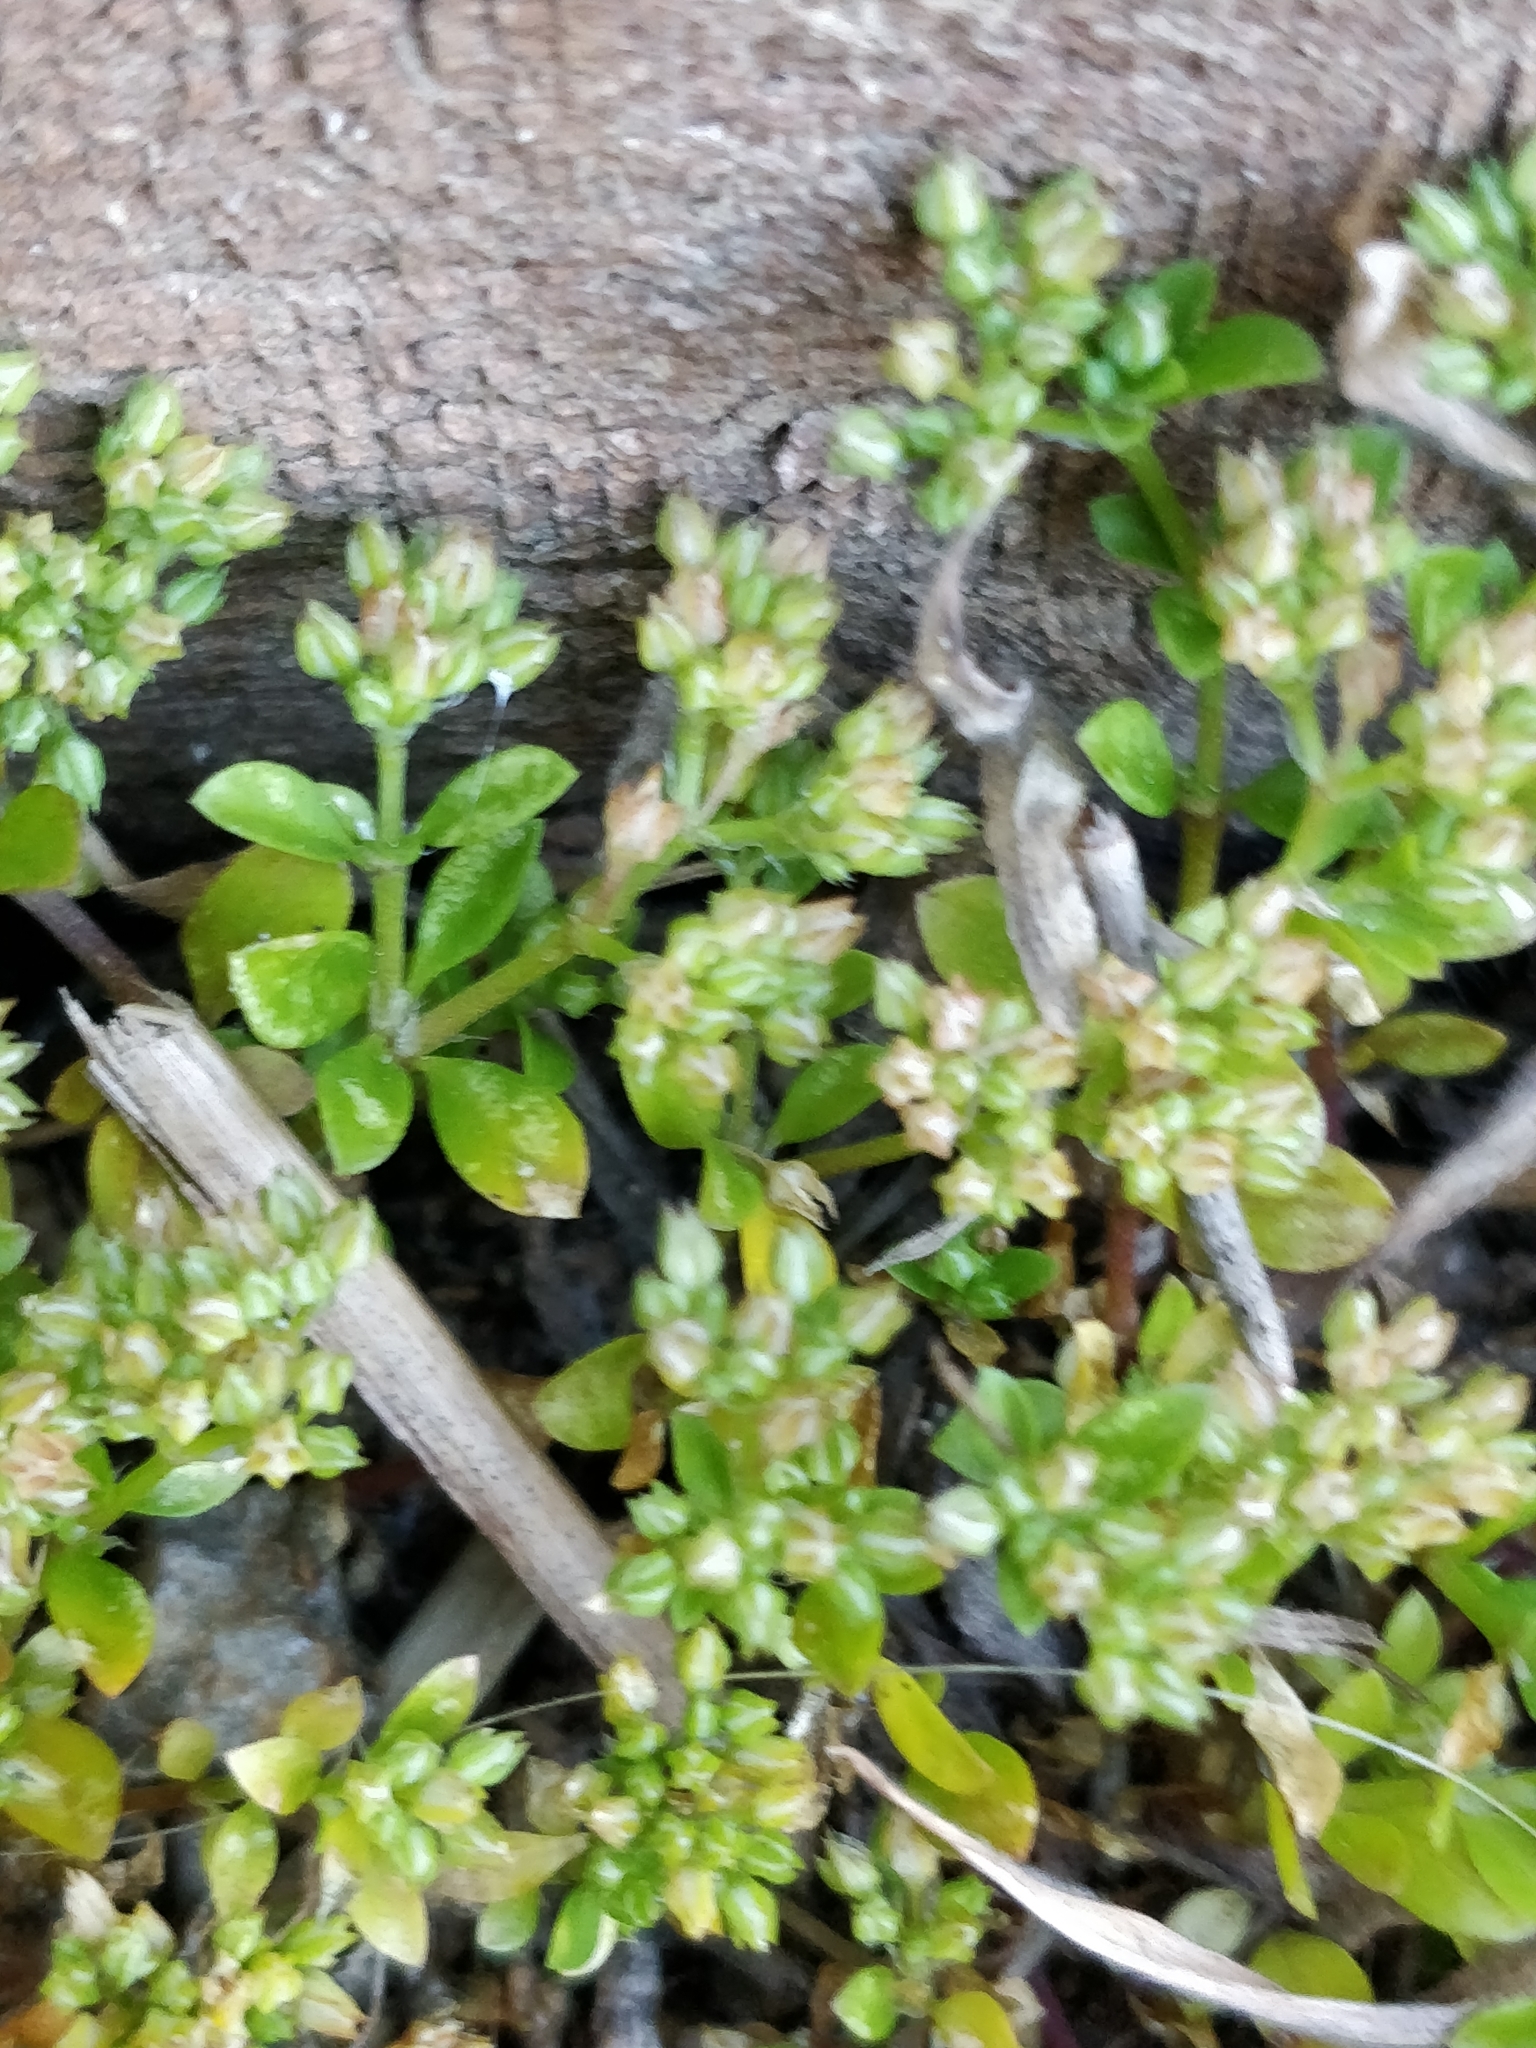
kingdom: Plantae
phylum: Tracheophyta
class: Magnoliopsida
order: Caryophyllales
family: Caryophyllaceae
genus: Polycarpon
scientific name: Polycarpon tetraphyllum
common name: Four-leaved all-seed
